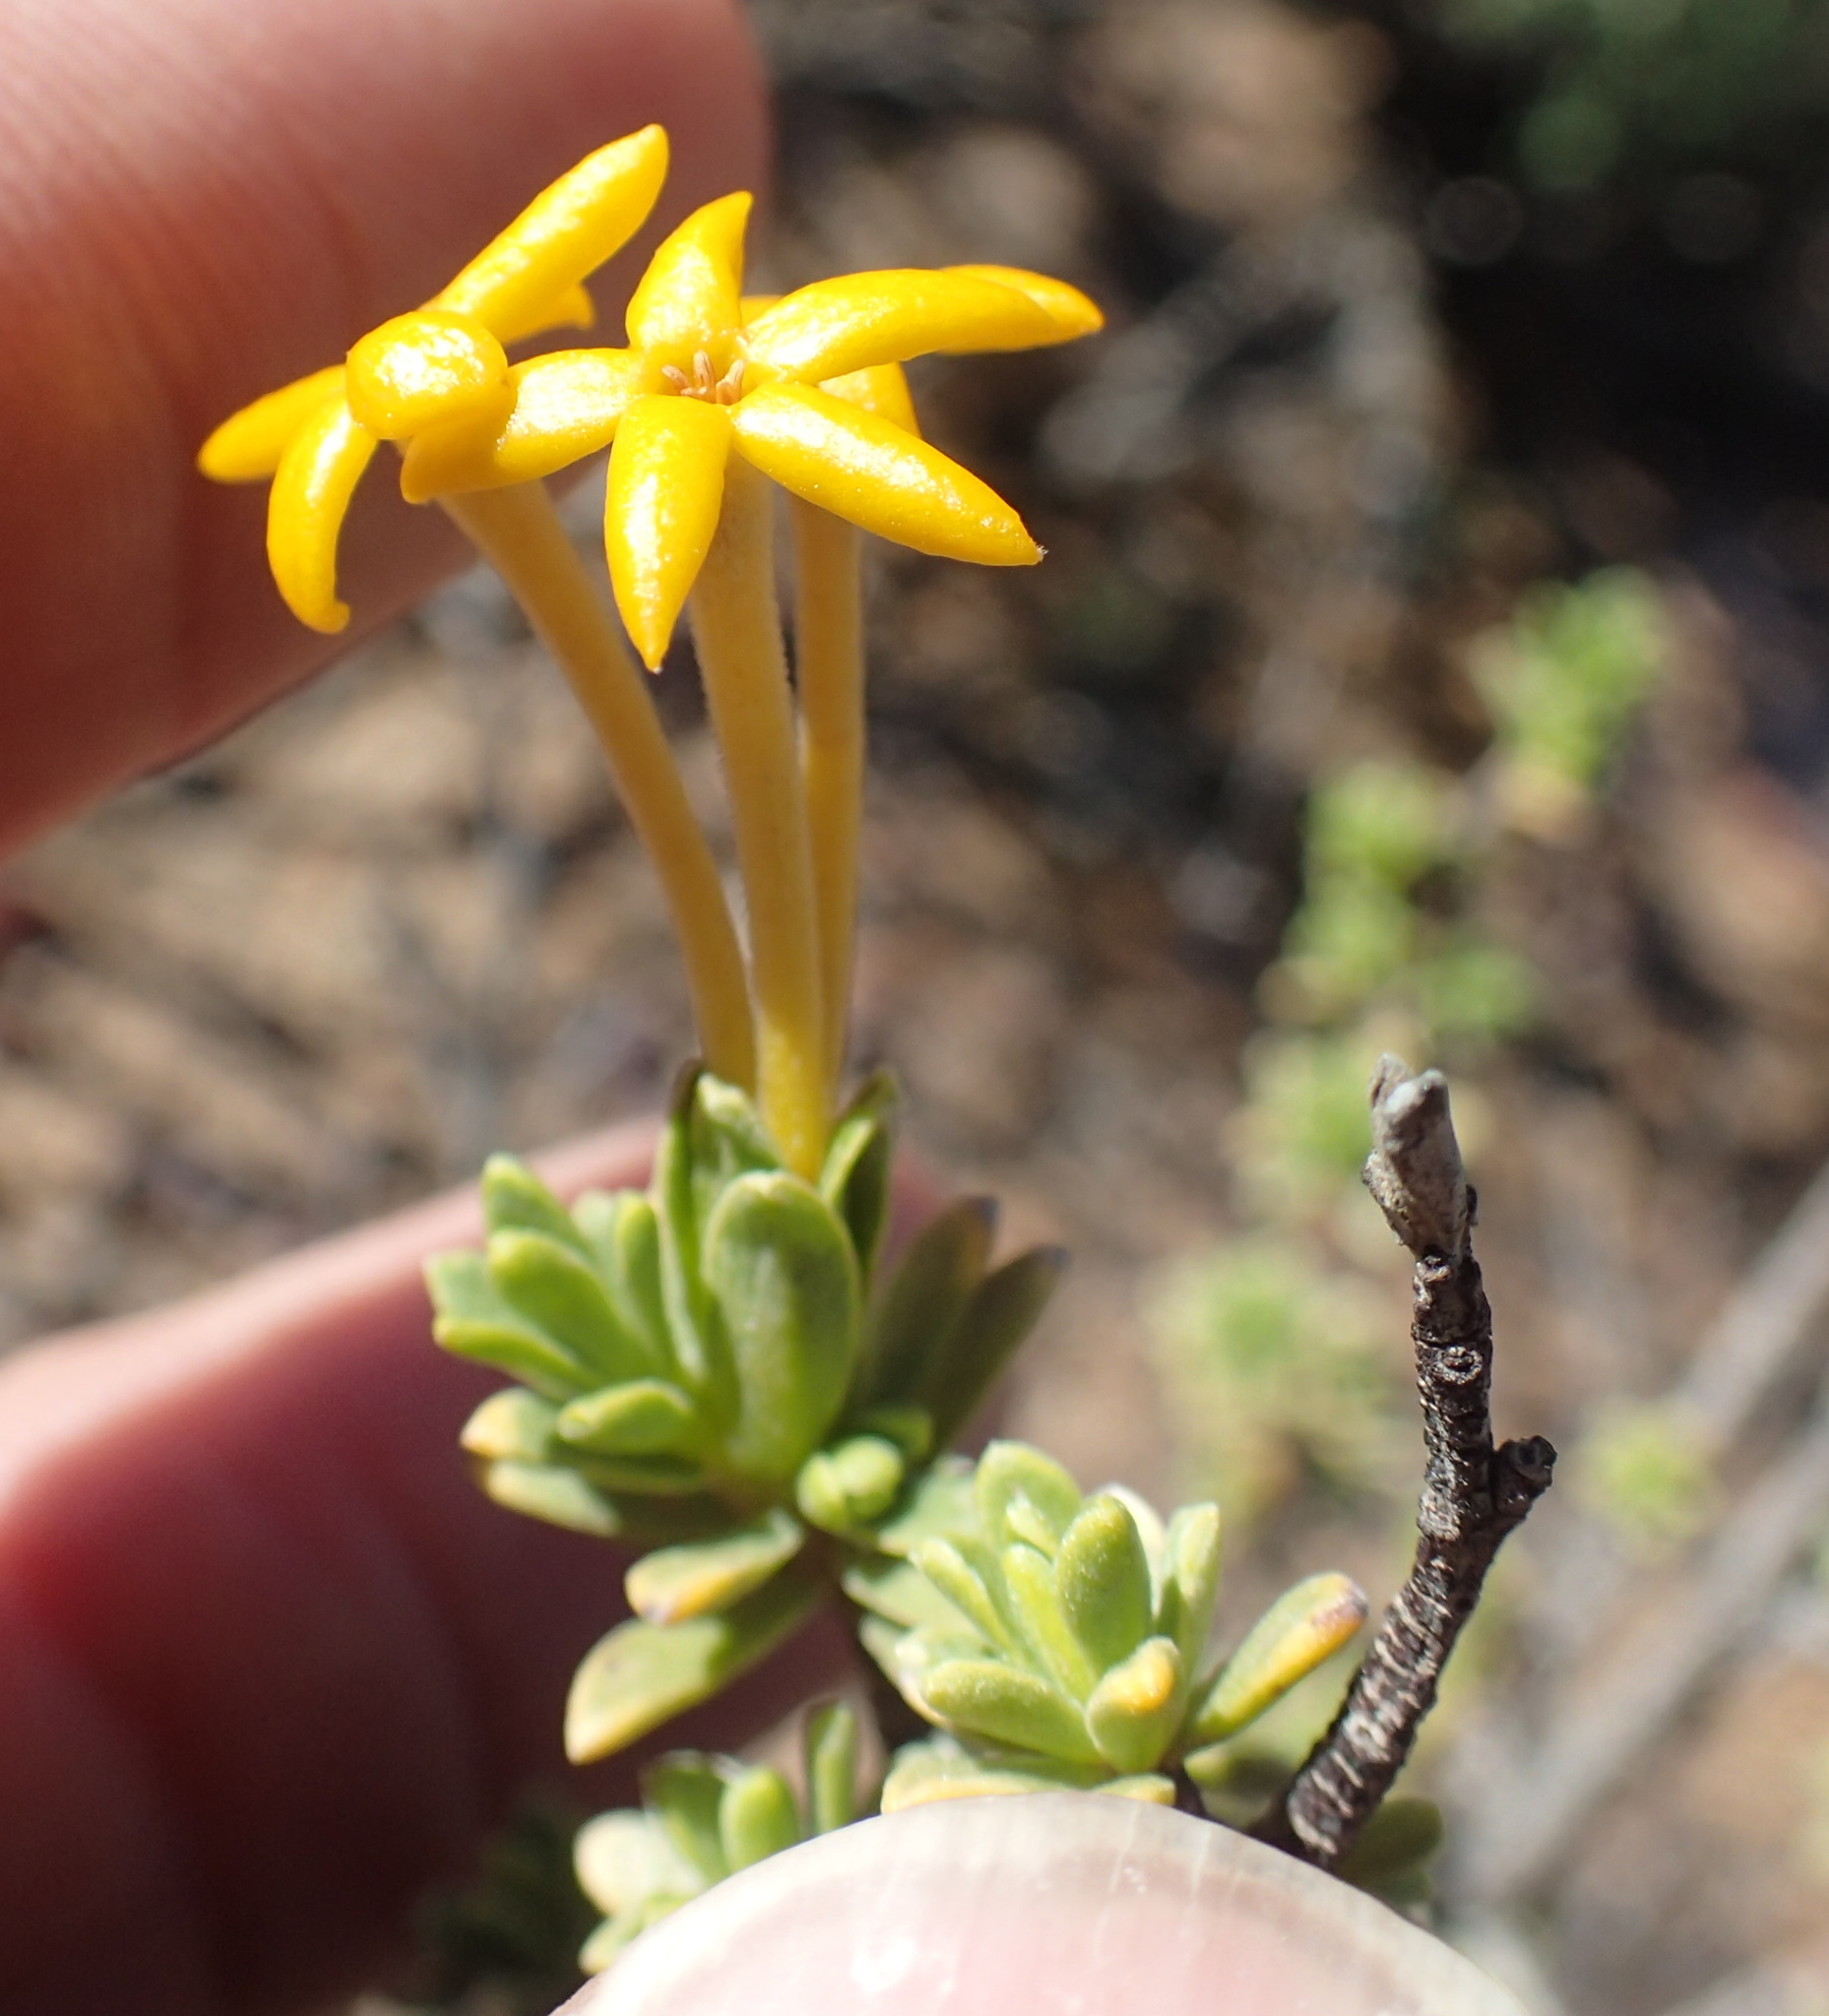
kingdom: Plantae
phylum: Tracheophyta
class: Magnoliopsida
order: Malvales
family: Thymelaeaceae
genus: Gnidia
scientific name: Gnidia deserticola
